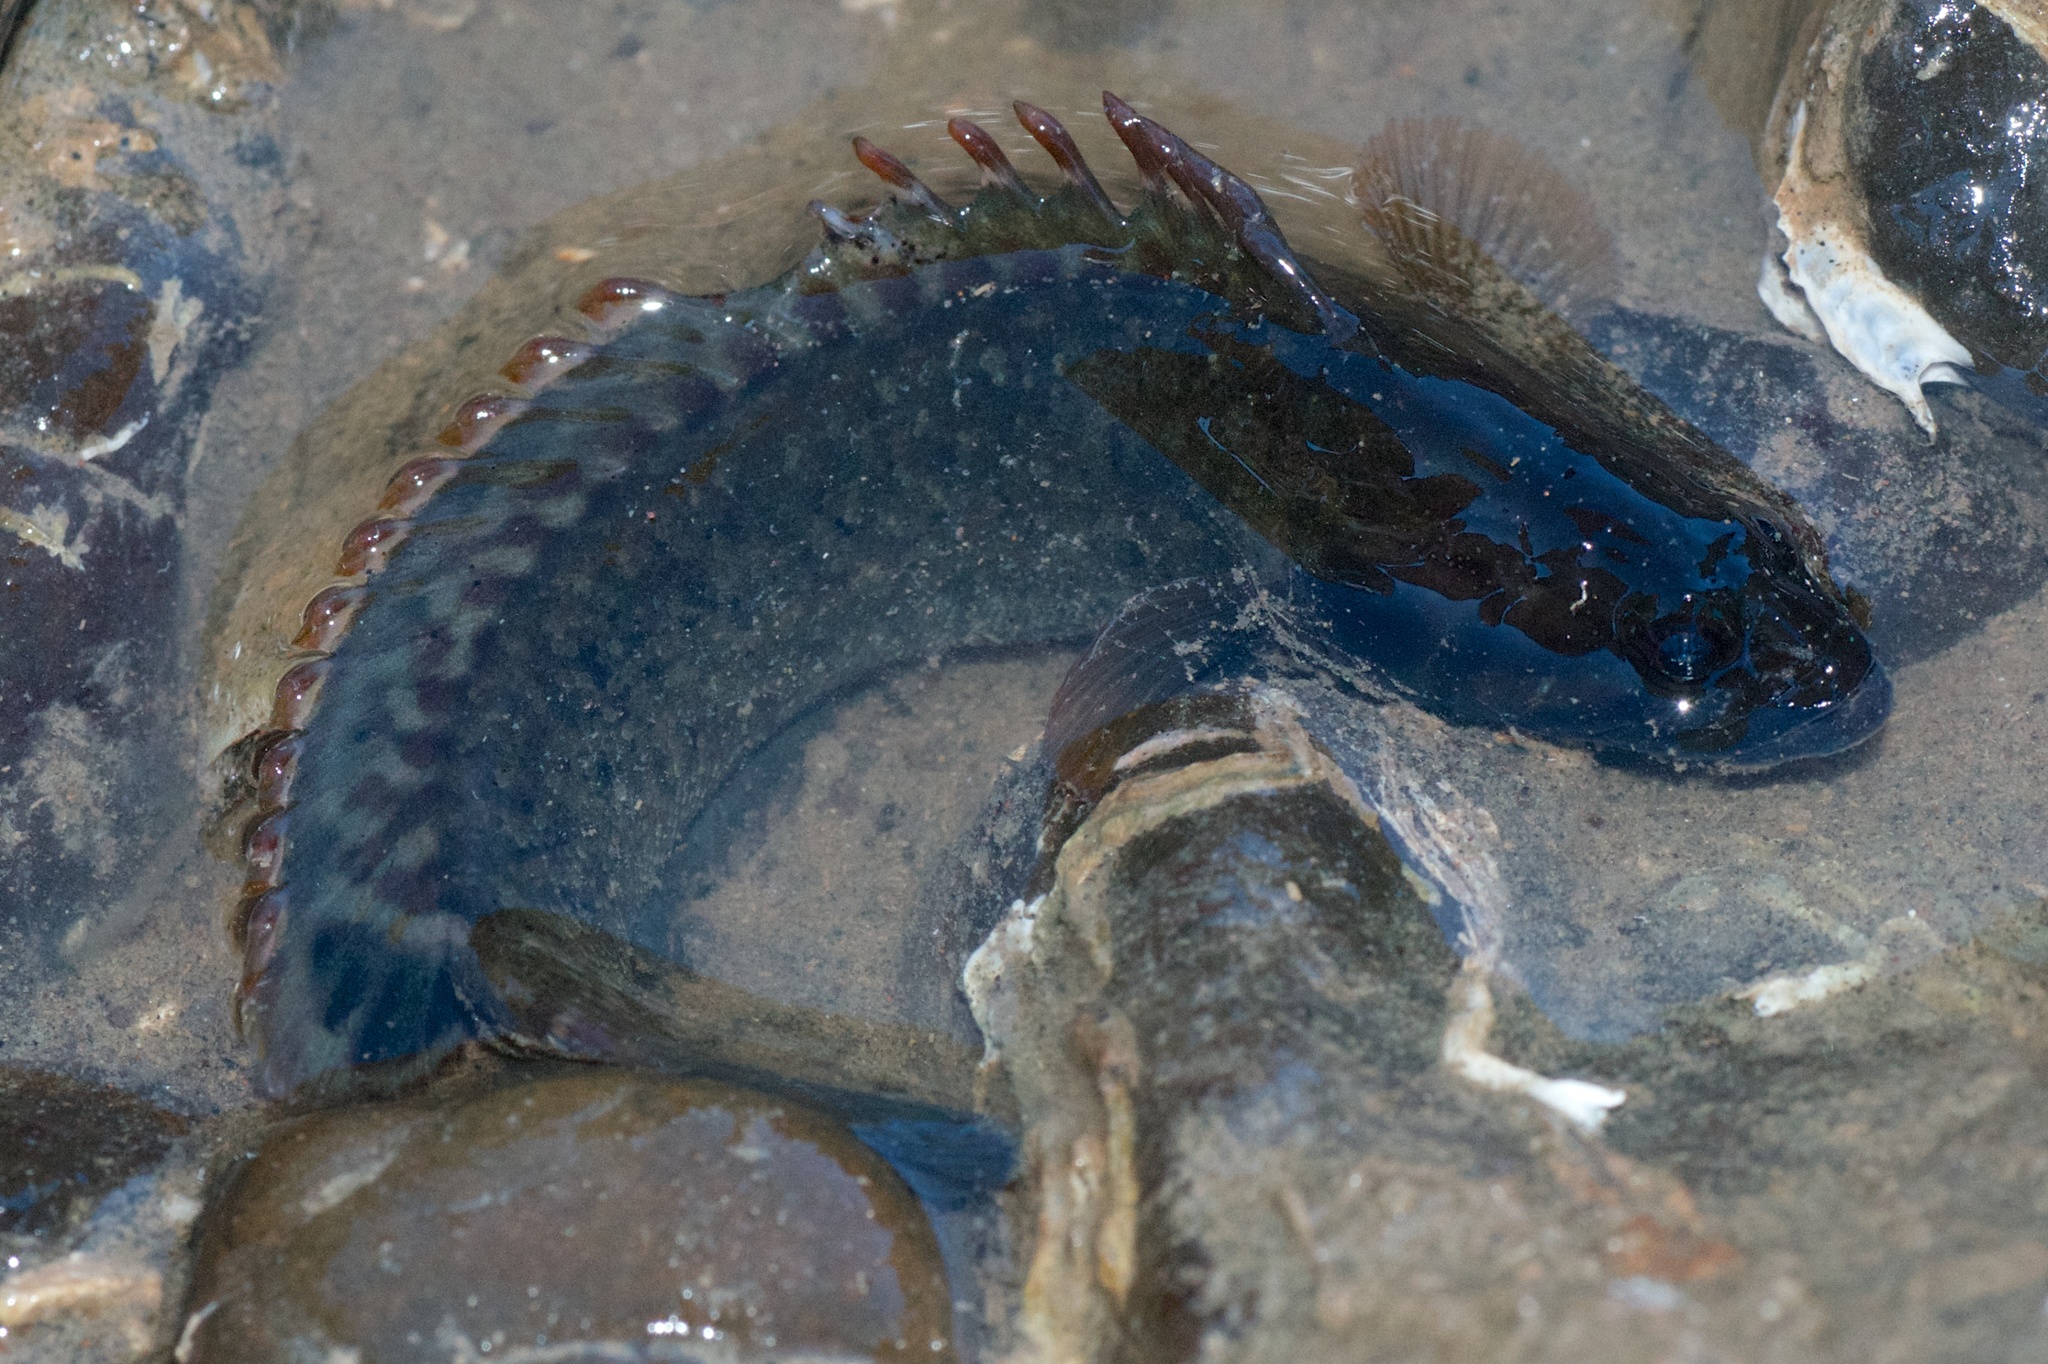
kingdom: Animalia
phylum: Chordata
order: Perciformes
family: Plesiopidae
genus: Acanthoclinus
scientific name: Acanthoclinus fuscus
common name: Olive rockfish
